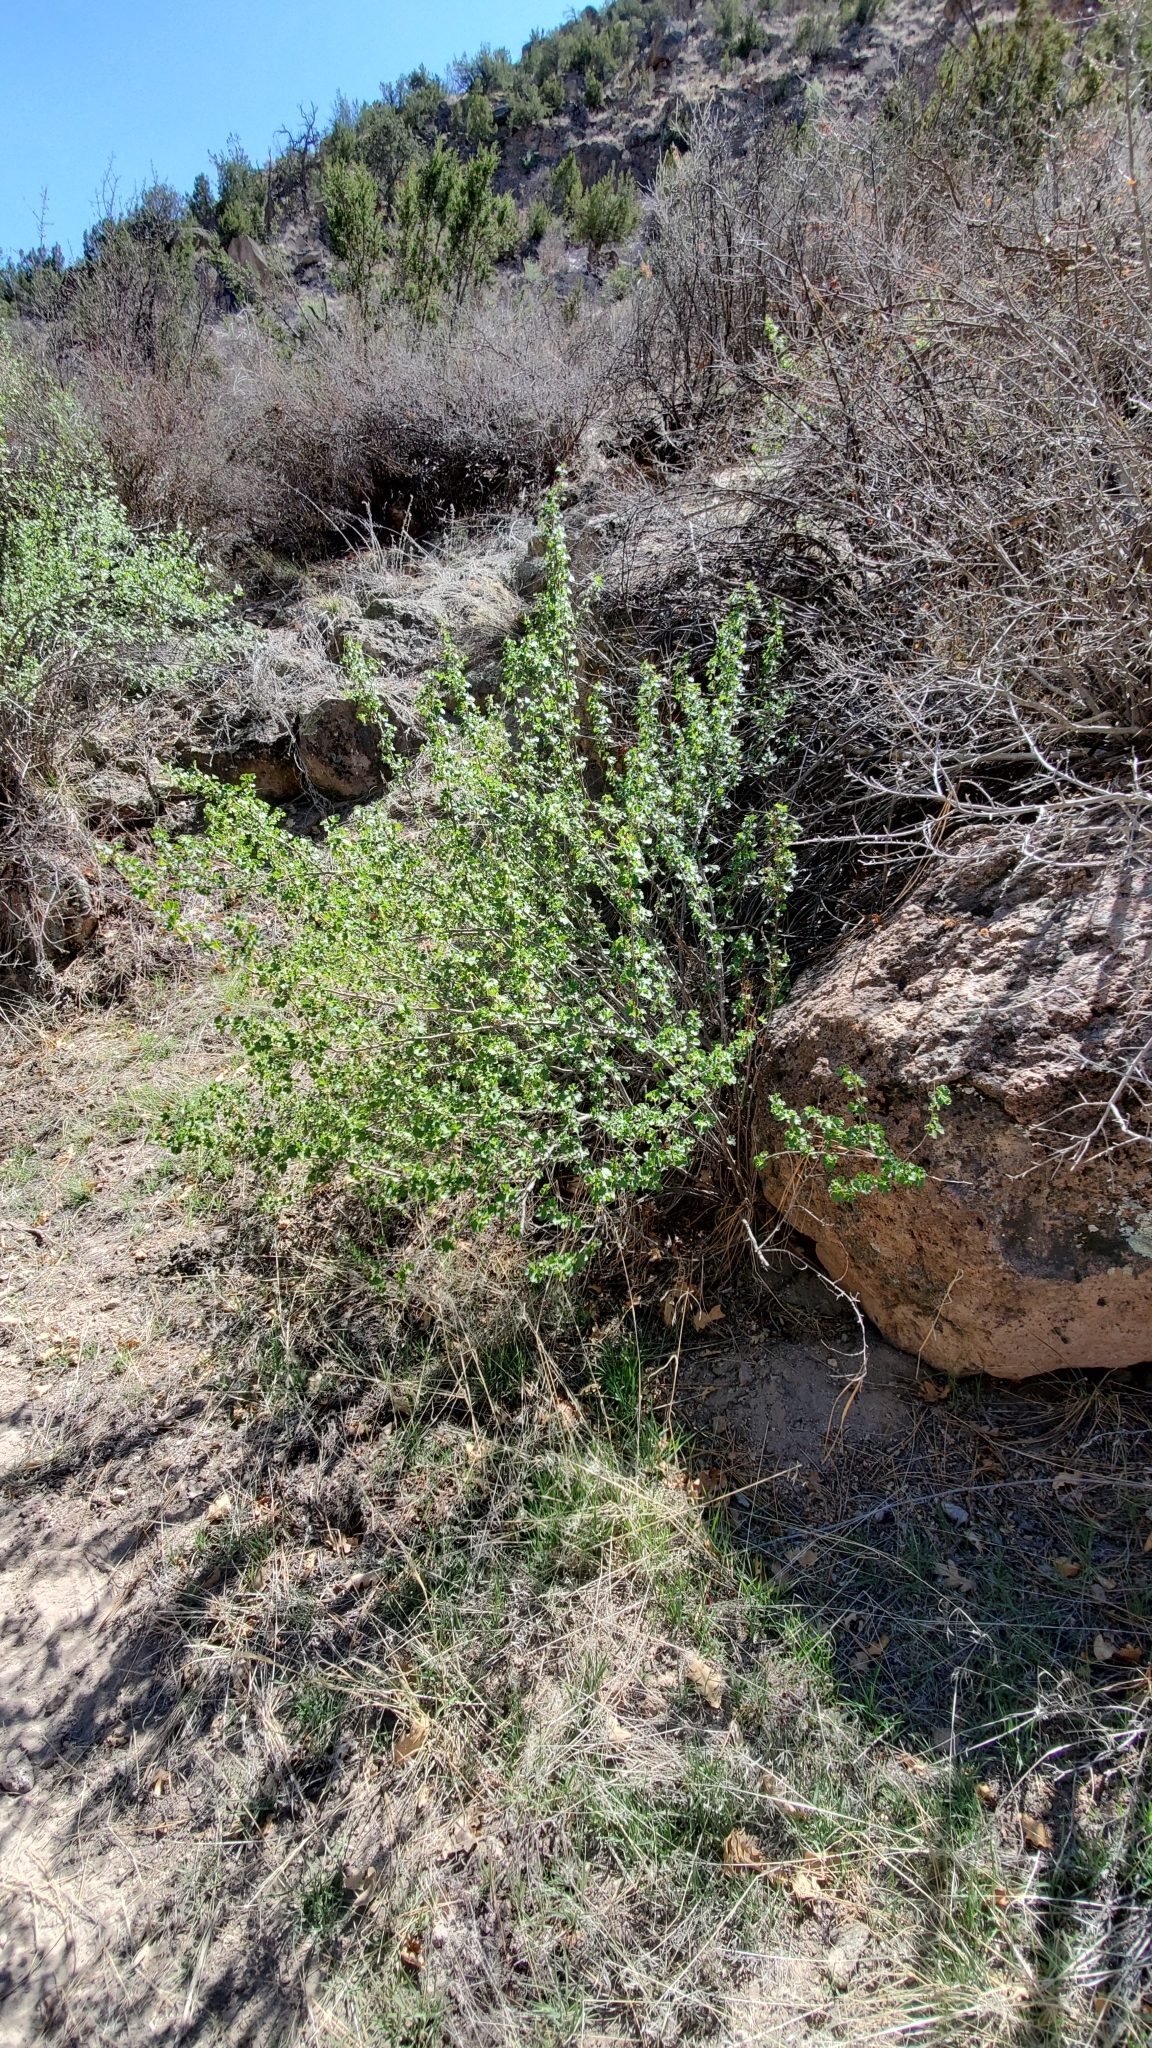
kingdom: Plantae
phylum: Tracheophyta
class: Magnoliopsida
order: Saxifragales
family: Grossulariaceae
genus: Ribes
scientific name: Ribes cereum
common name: Wax currant
